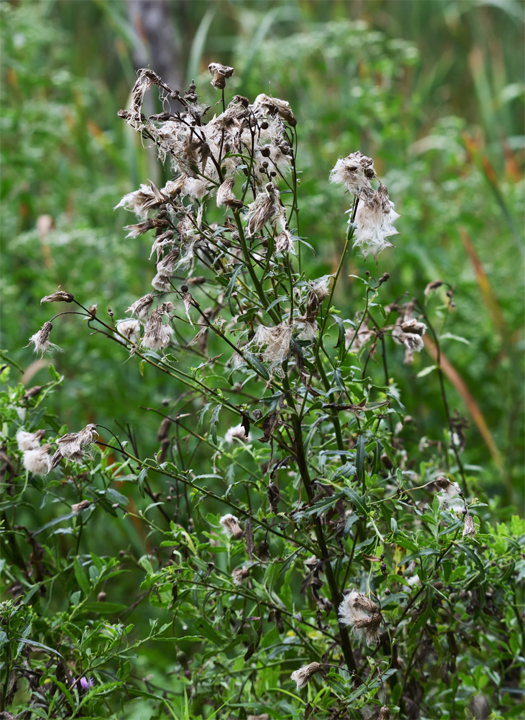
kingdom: Plantae
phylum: Tracheophyta
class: Magnoliopsida
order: Asterales
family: Asteraceae
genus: Cirsium
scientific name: Cirsium arvense
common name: Creeping thistle
